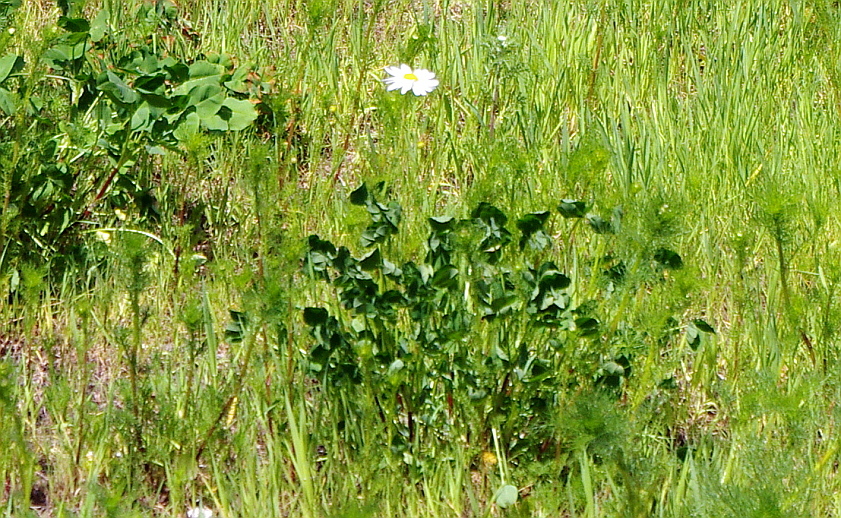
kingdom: Plantae
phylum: Tracheophyta
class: Magnoliopsida
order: Asterales
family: Asteraceae
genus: Tripleurospermum
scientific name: Tripleurospermum inodorum
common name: Scentless mayweed
